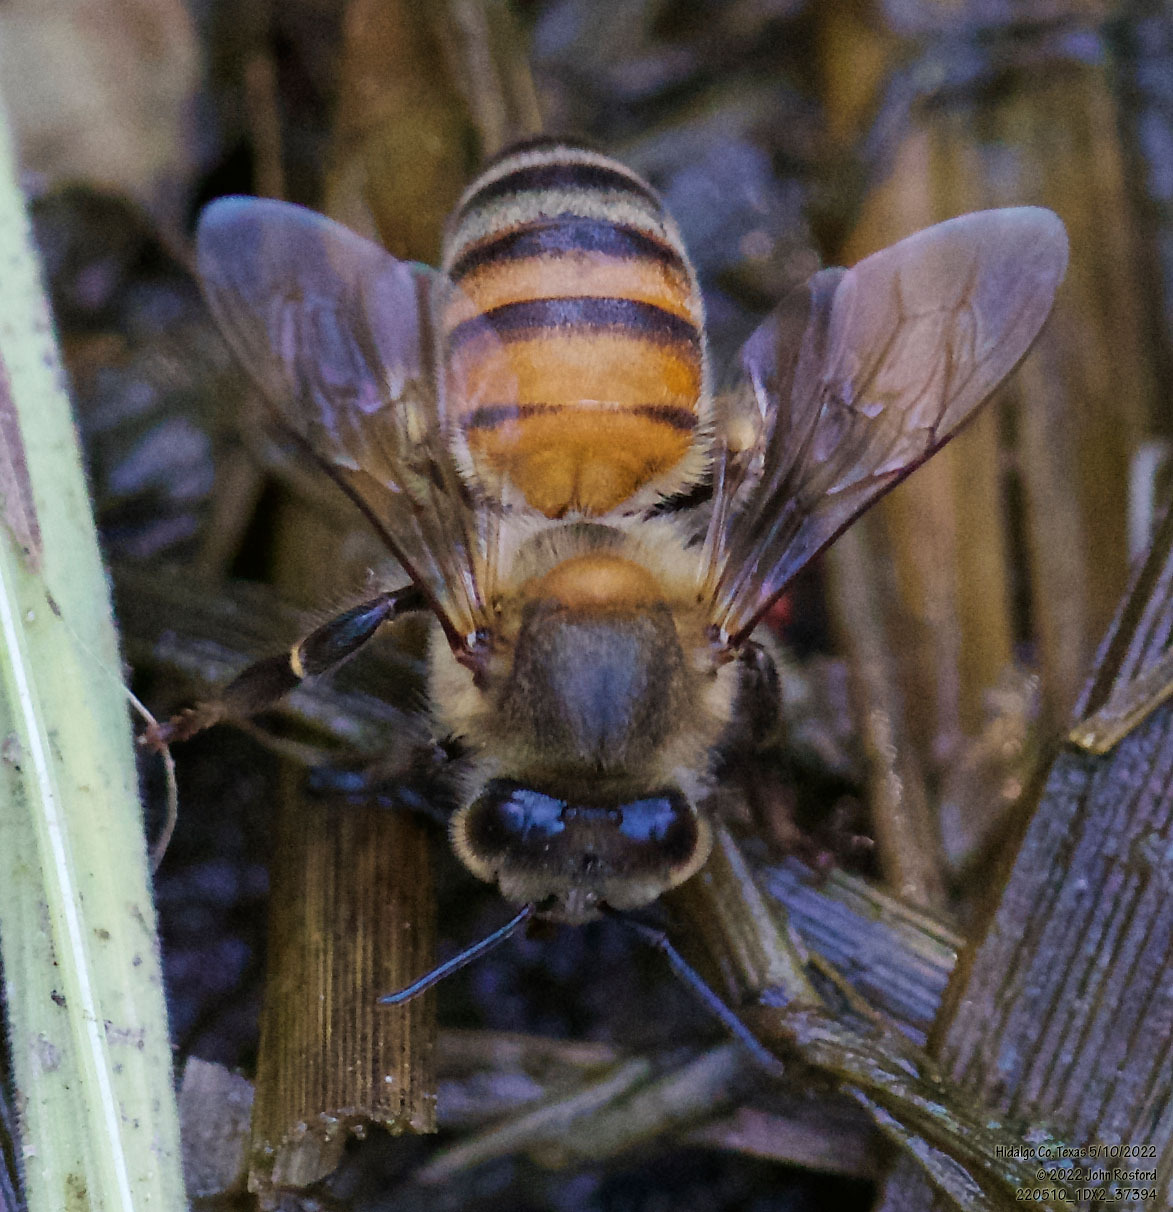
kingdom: Animalia
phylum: Arthropoda
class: Insecta
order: Hymenoptera
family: Apidae
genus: Apis
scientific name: Apis mellifera
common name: Honey bee
